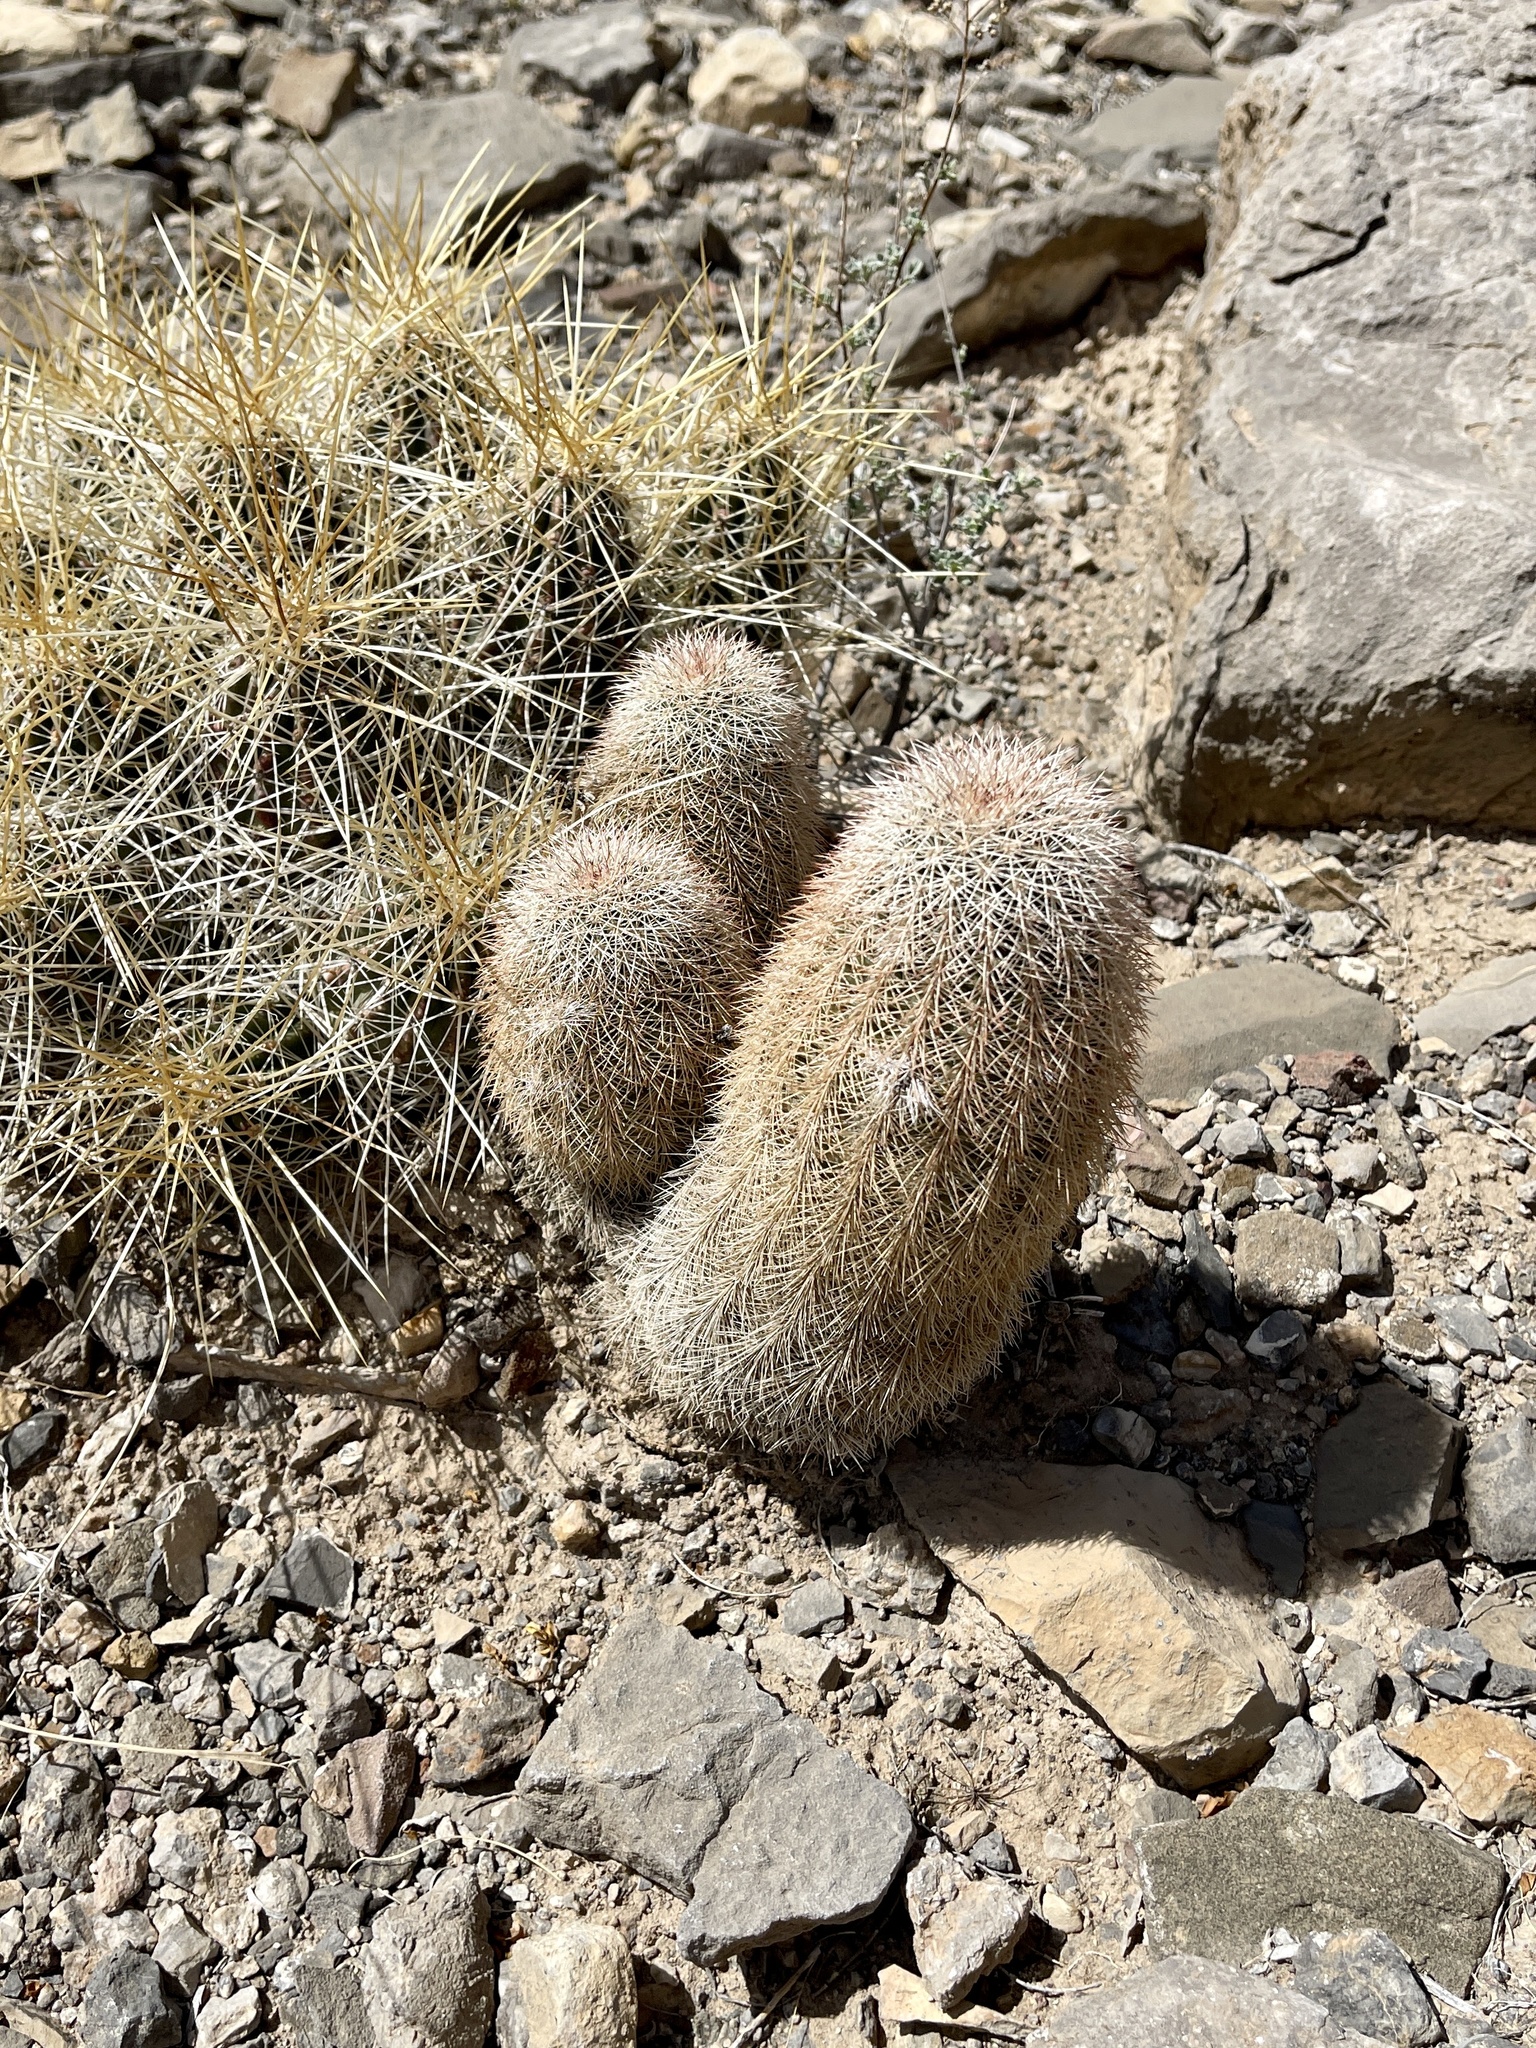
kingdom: Plantae
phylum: Tracheophyta
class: Magnoliopsida
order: Caryophyllales
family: Cactaceae
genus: Echinocereus
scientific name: Echinocereus dasyacanthus
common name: Spiny hedgehog cactus
